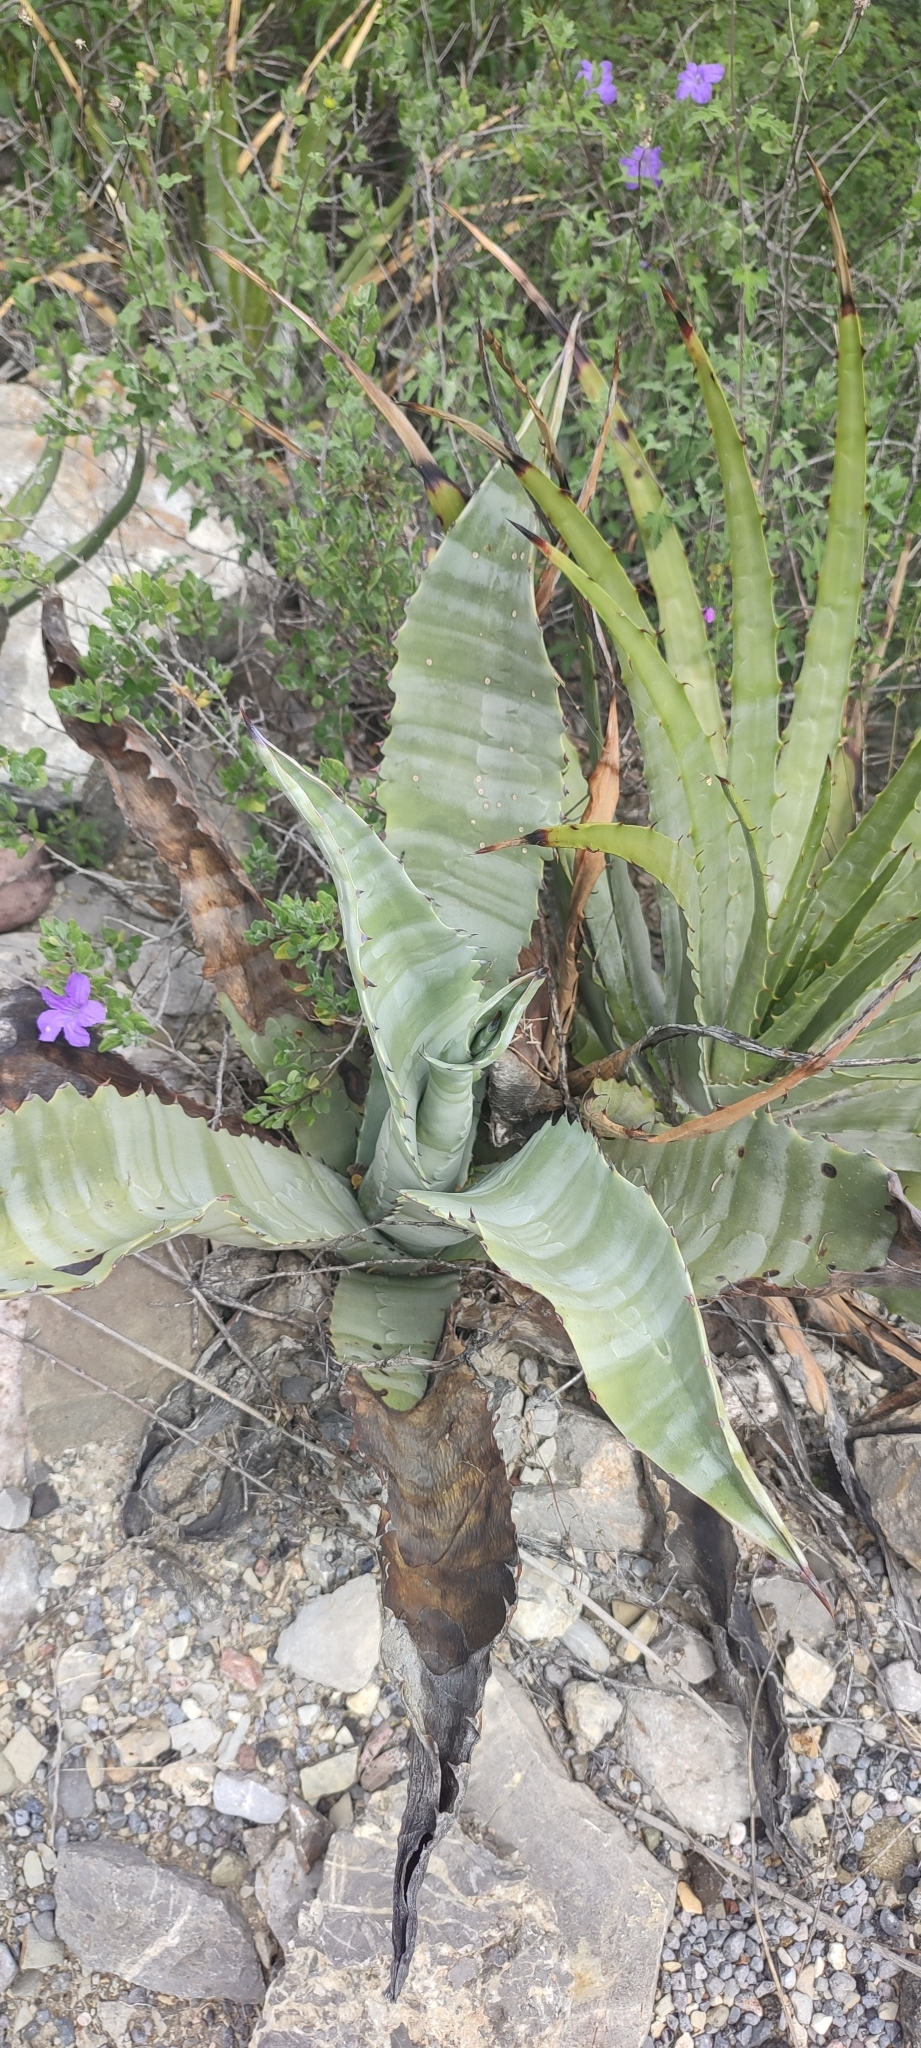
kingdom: Plantae
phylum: Tracheophyta
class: Liliopsida
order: Asparagales
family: Asparagaceae
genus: Agave
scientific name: Agave marmorata
